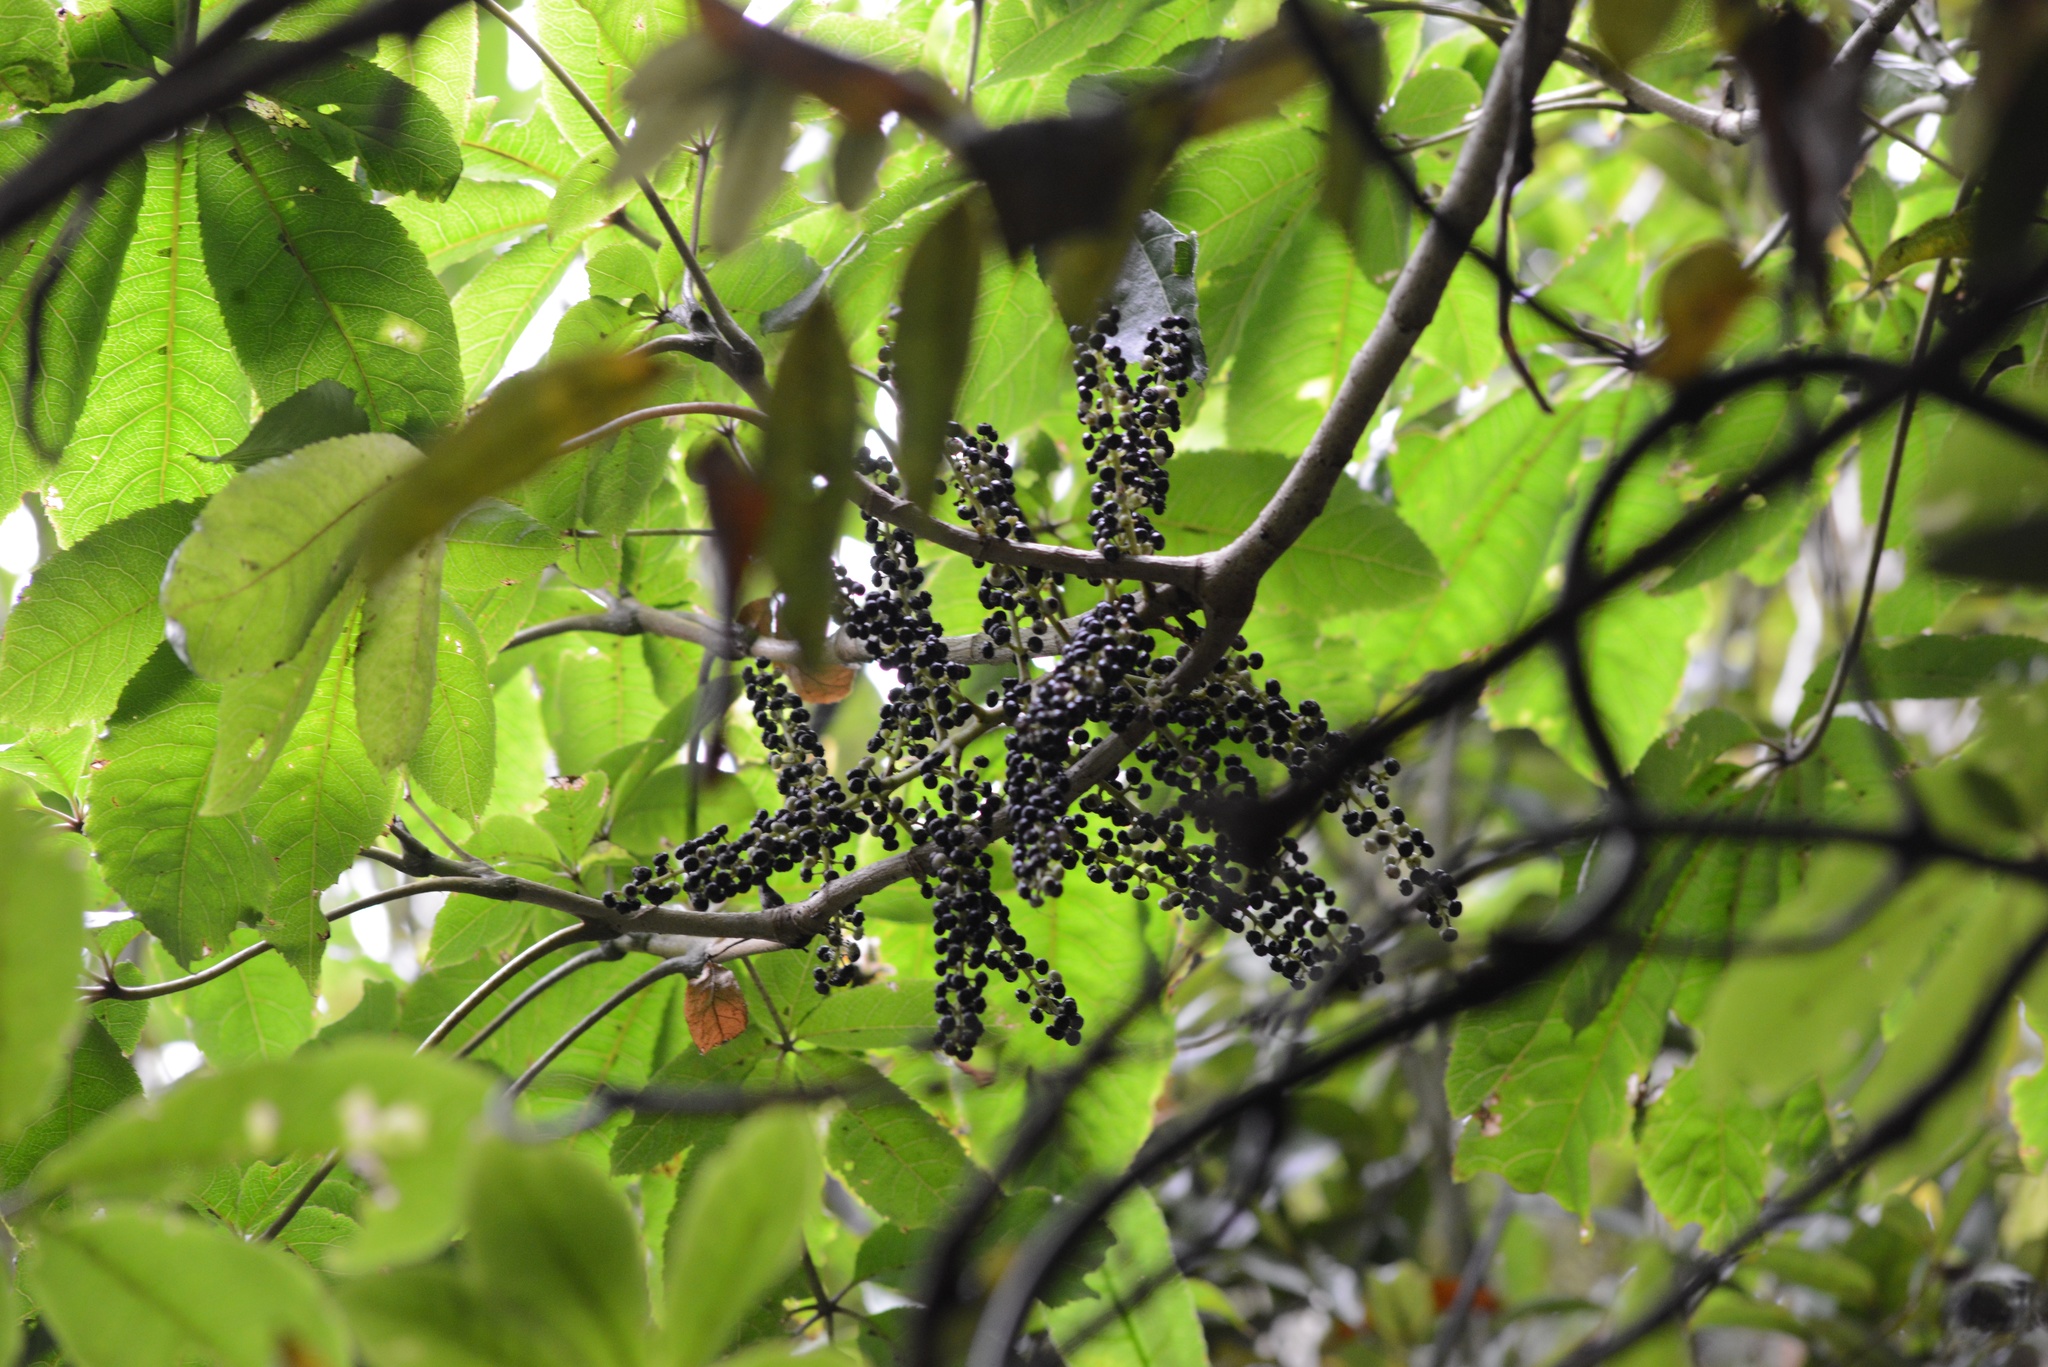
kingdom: Plantae
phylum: Tracheophyta
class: Magnoliopsida
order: Apiales
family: Araliaceae
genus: Schefflera
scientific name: Schefflera digitata
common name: Pate
